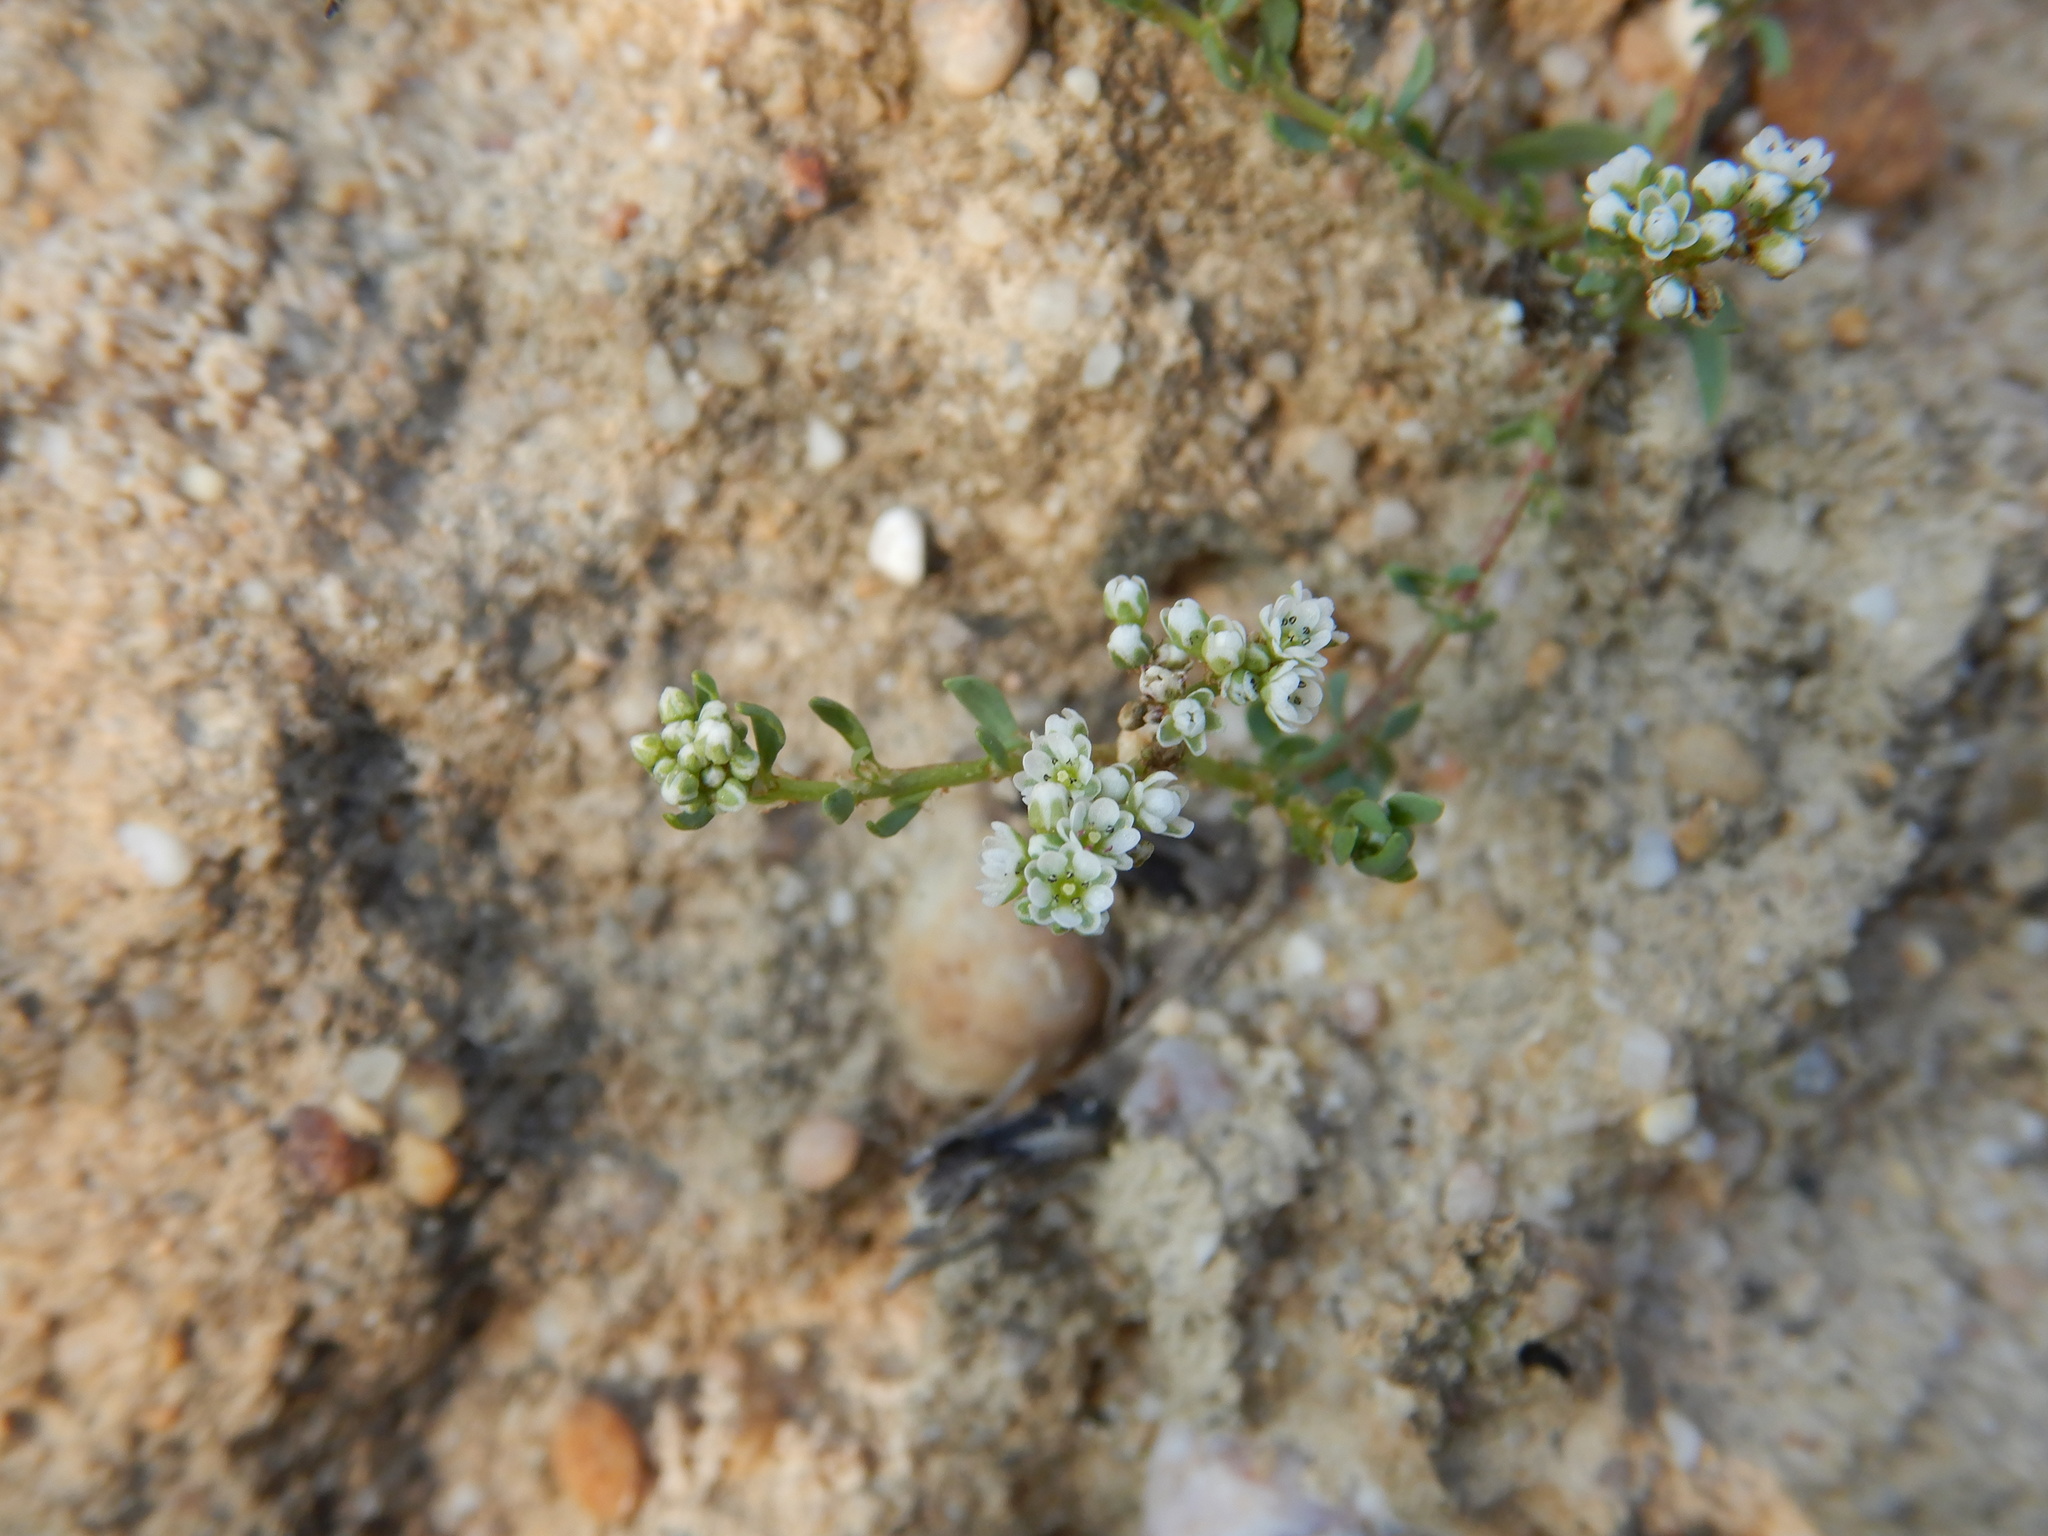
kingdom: Plantae
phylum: Tracheophyta
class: Magnoliopsida
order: Caryophyllales
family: Caryophyllaceae
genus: Corrigiola
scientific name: Corrigiola litoralis
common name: Strapwort
